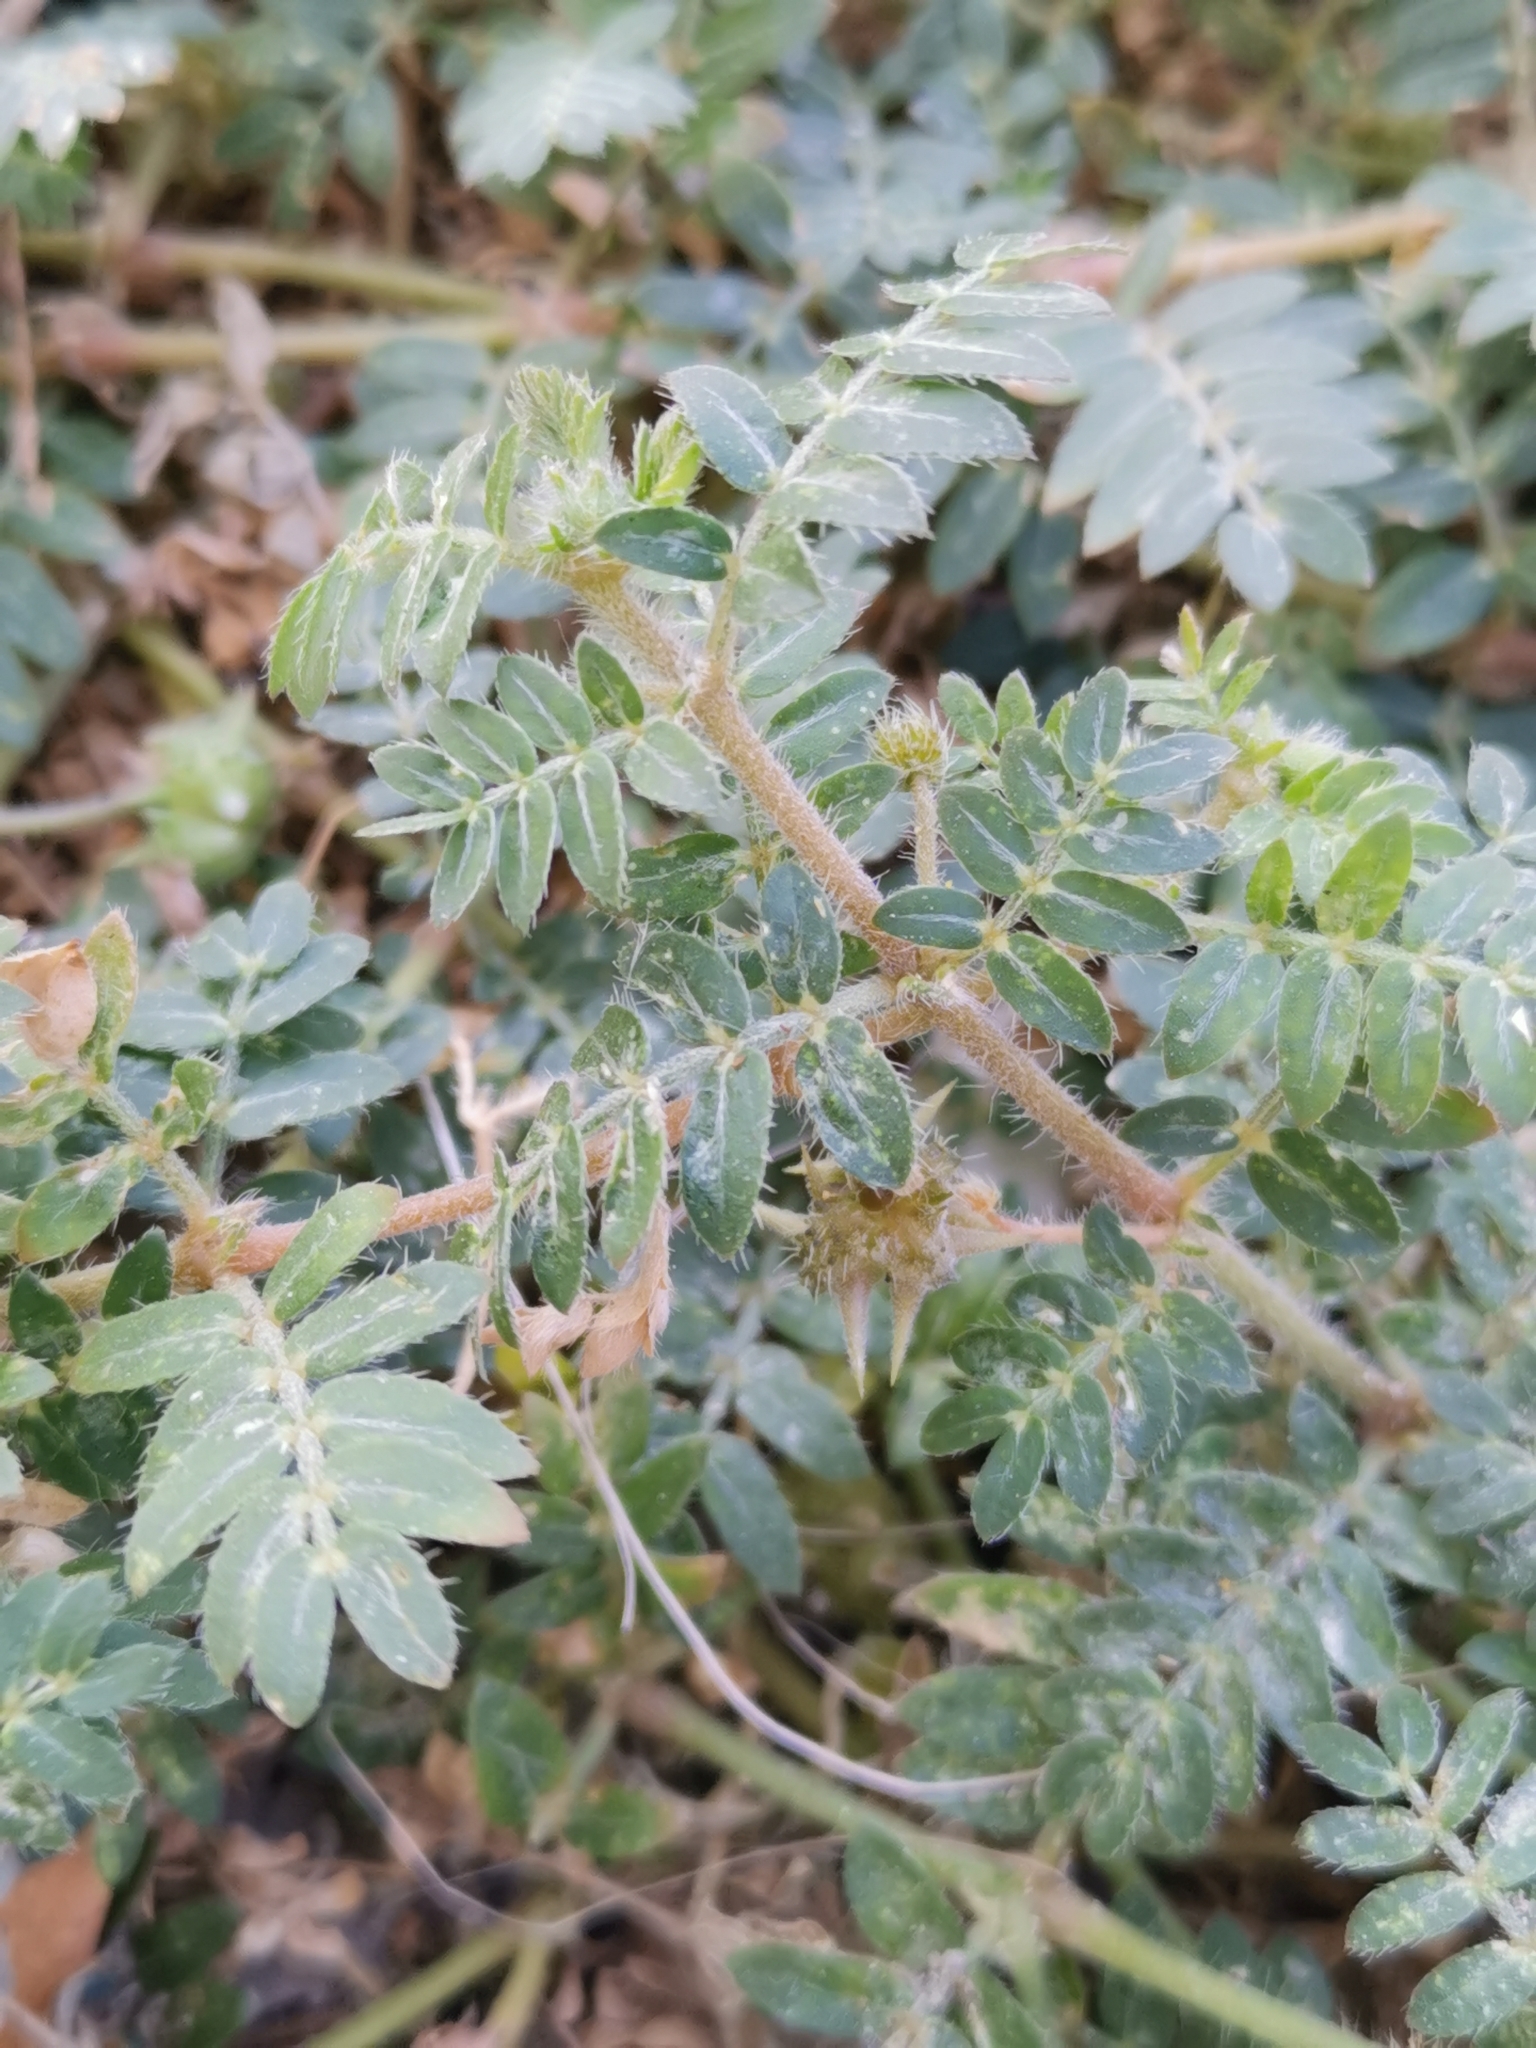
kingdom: Plantae
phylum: Tracheophyta
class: Magnoliopsida
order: Zygophyllales
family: Zygophyllaceae
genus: Tribulus
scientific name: Tribulus terrestris
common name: Puncturevine
